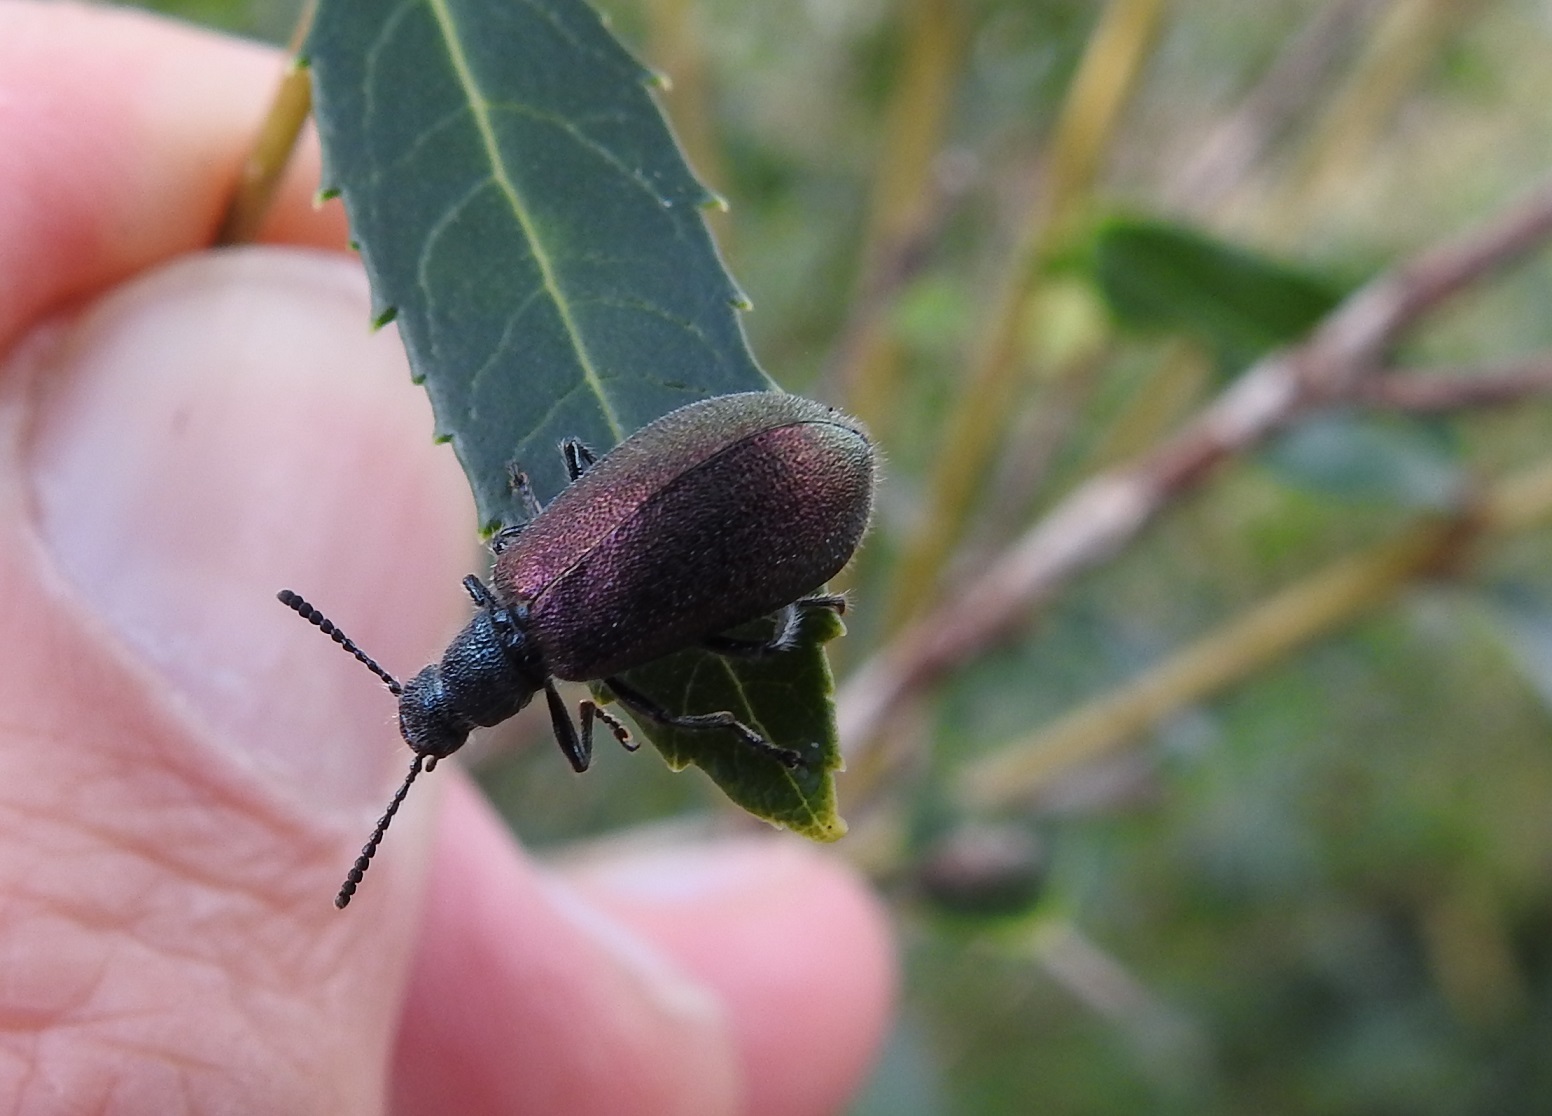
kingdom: Animalia
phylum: Arthropoda
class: Insecta
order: Coleoptera
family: Tenebrionidae
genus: Chrysolagria
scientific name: Chrysolagria
